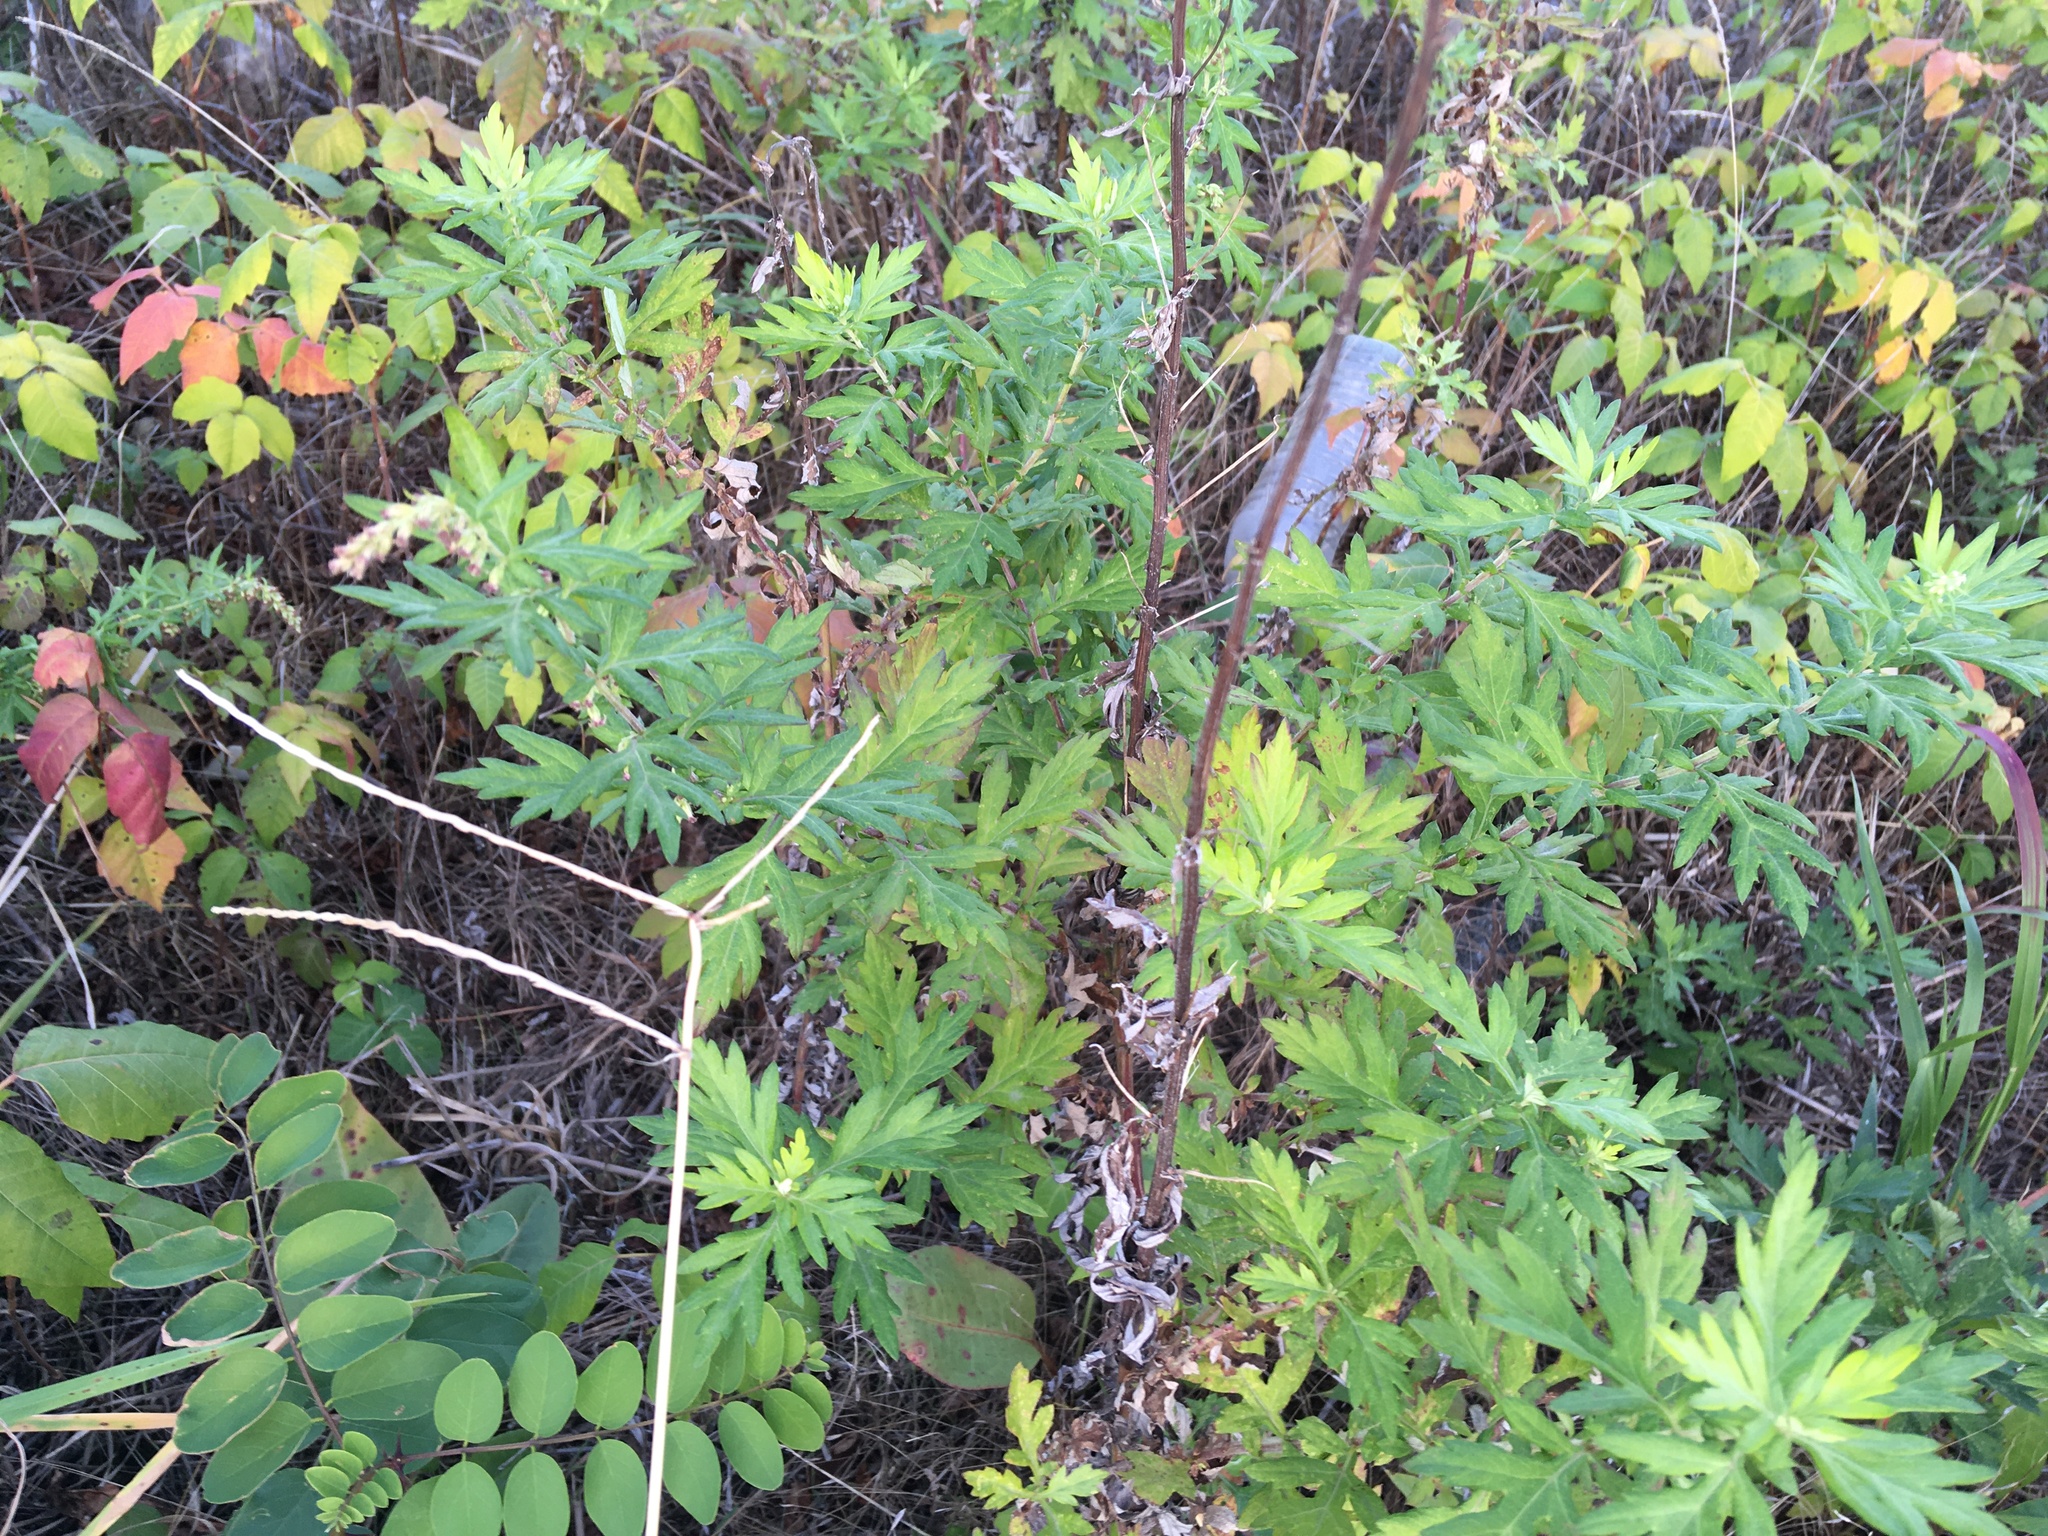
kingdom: Plantae
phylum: Tracheophyta
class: Magnoliopsida
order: Asterales
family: Asteraceae
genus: Artemisia
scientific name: Artemisia vulgaris
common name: Mugwort
